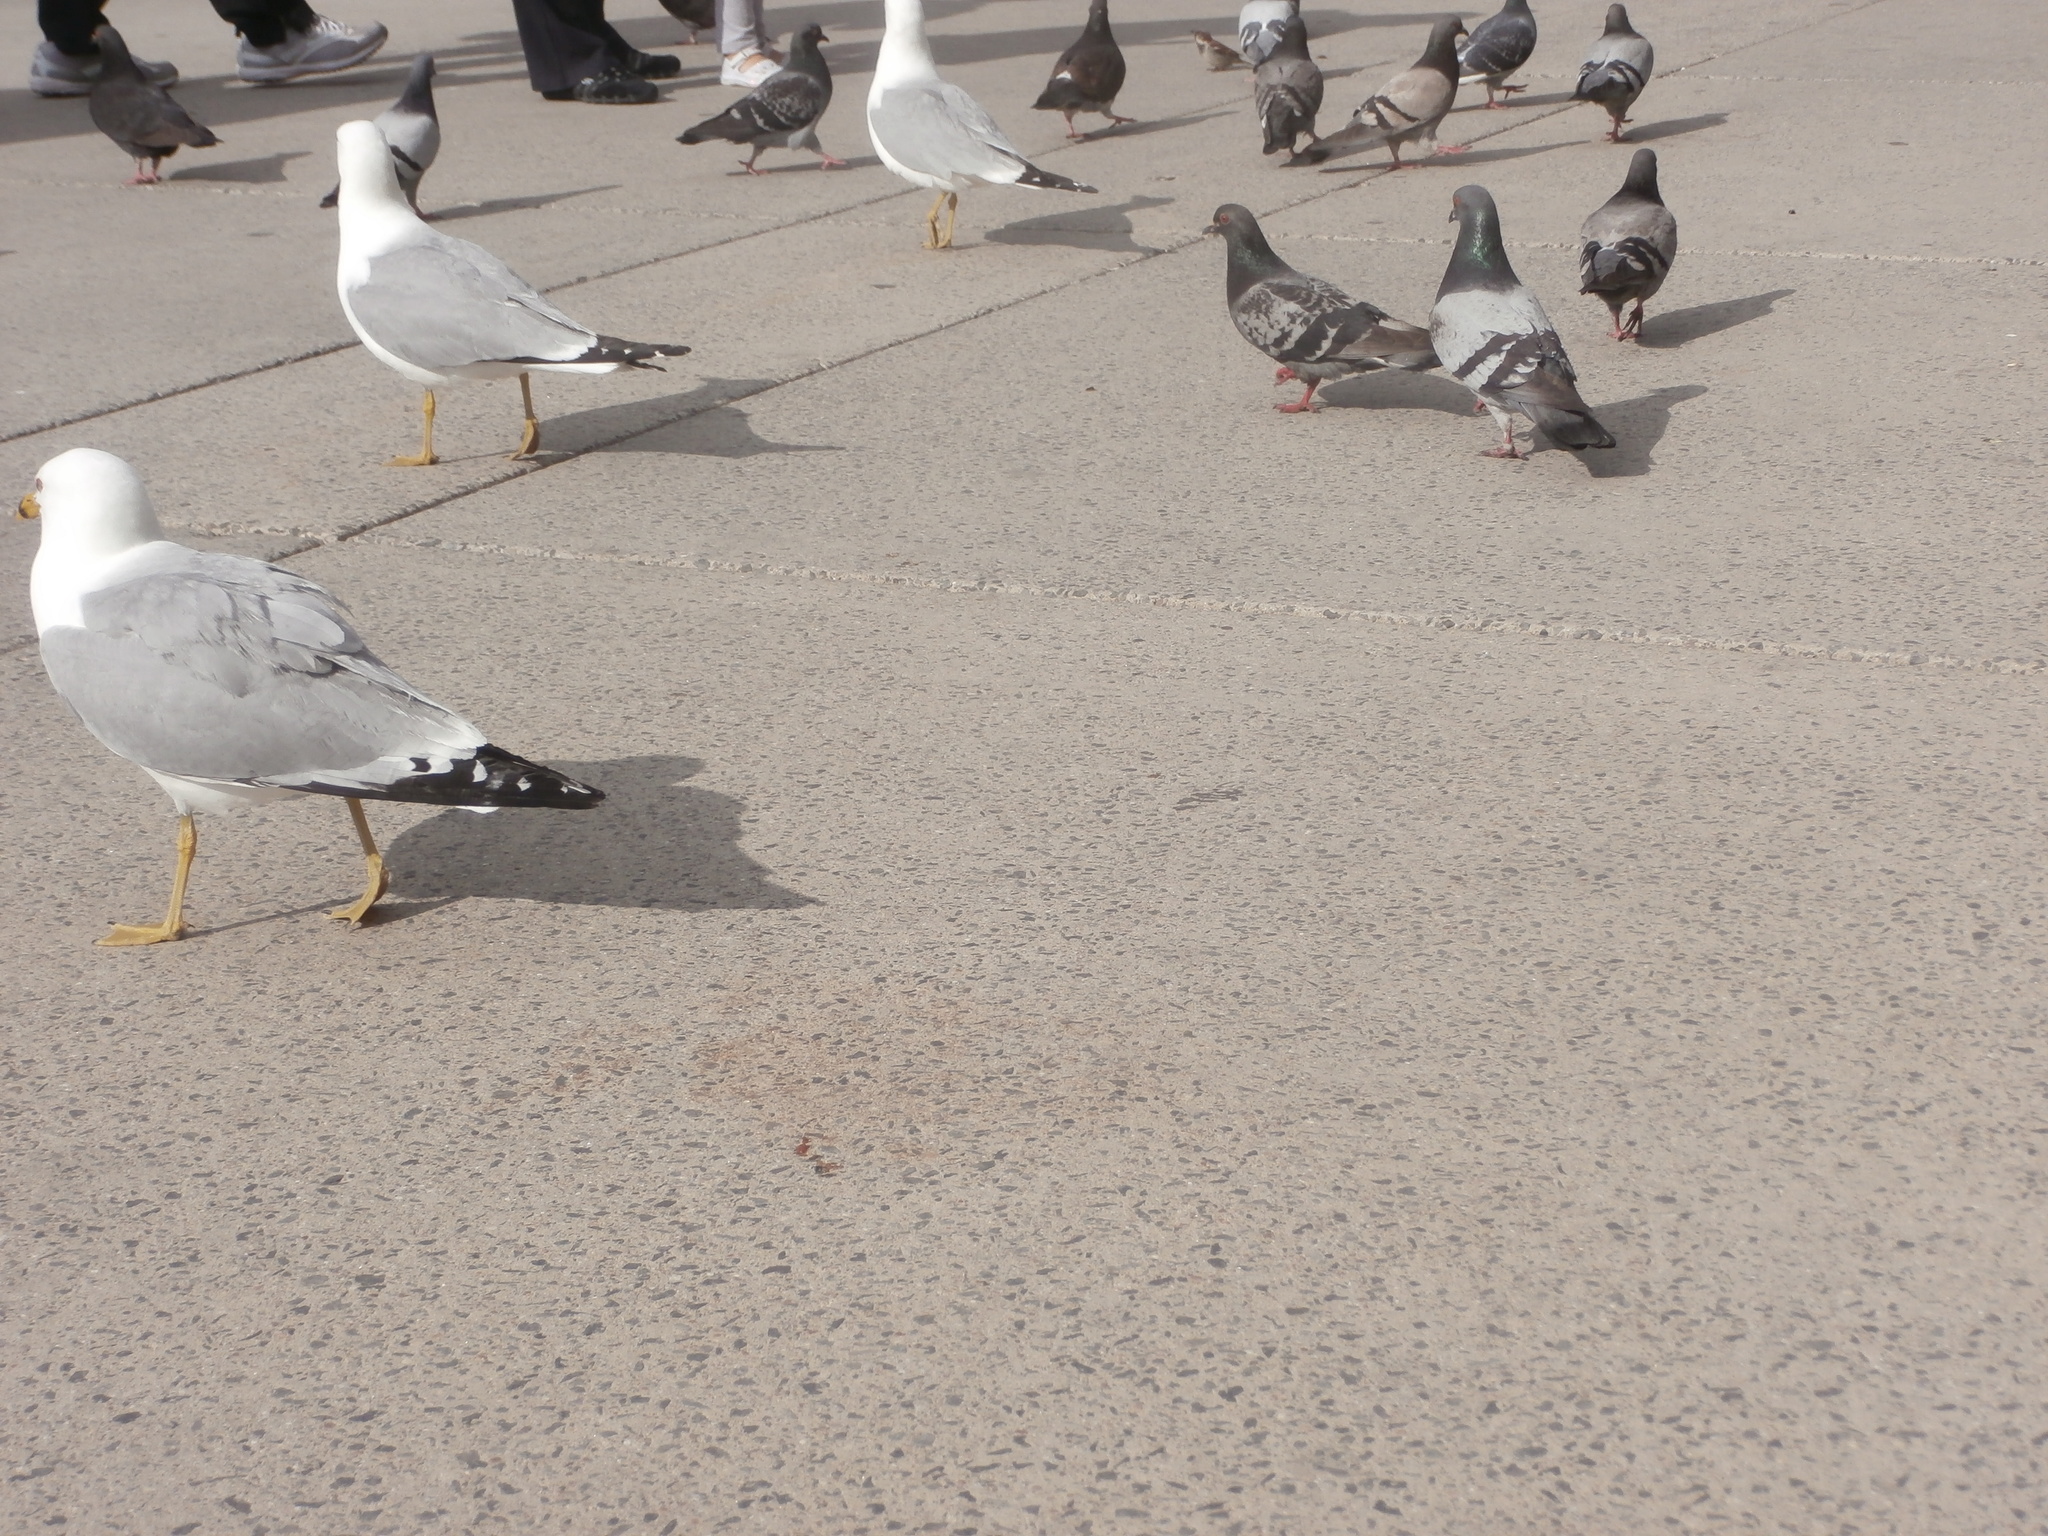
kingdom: Animalia
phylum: Chordata
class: Aves
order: Columbiformes
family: Columbidae
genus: Columba
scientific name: Columba livia
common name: Rock pigeon
